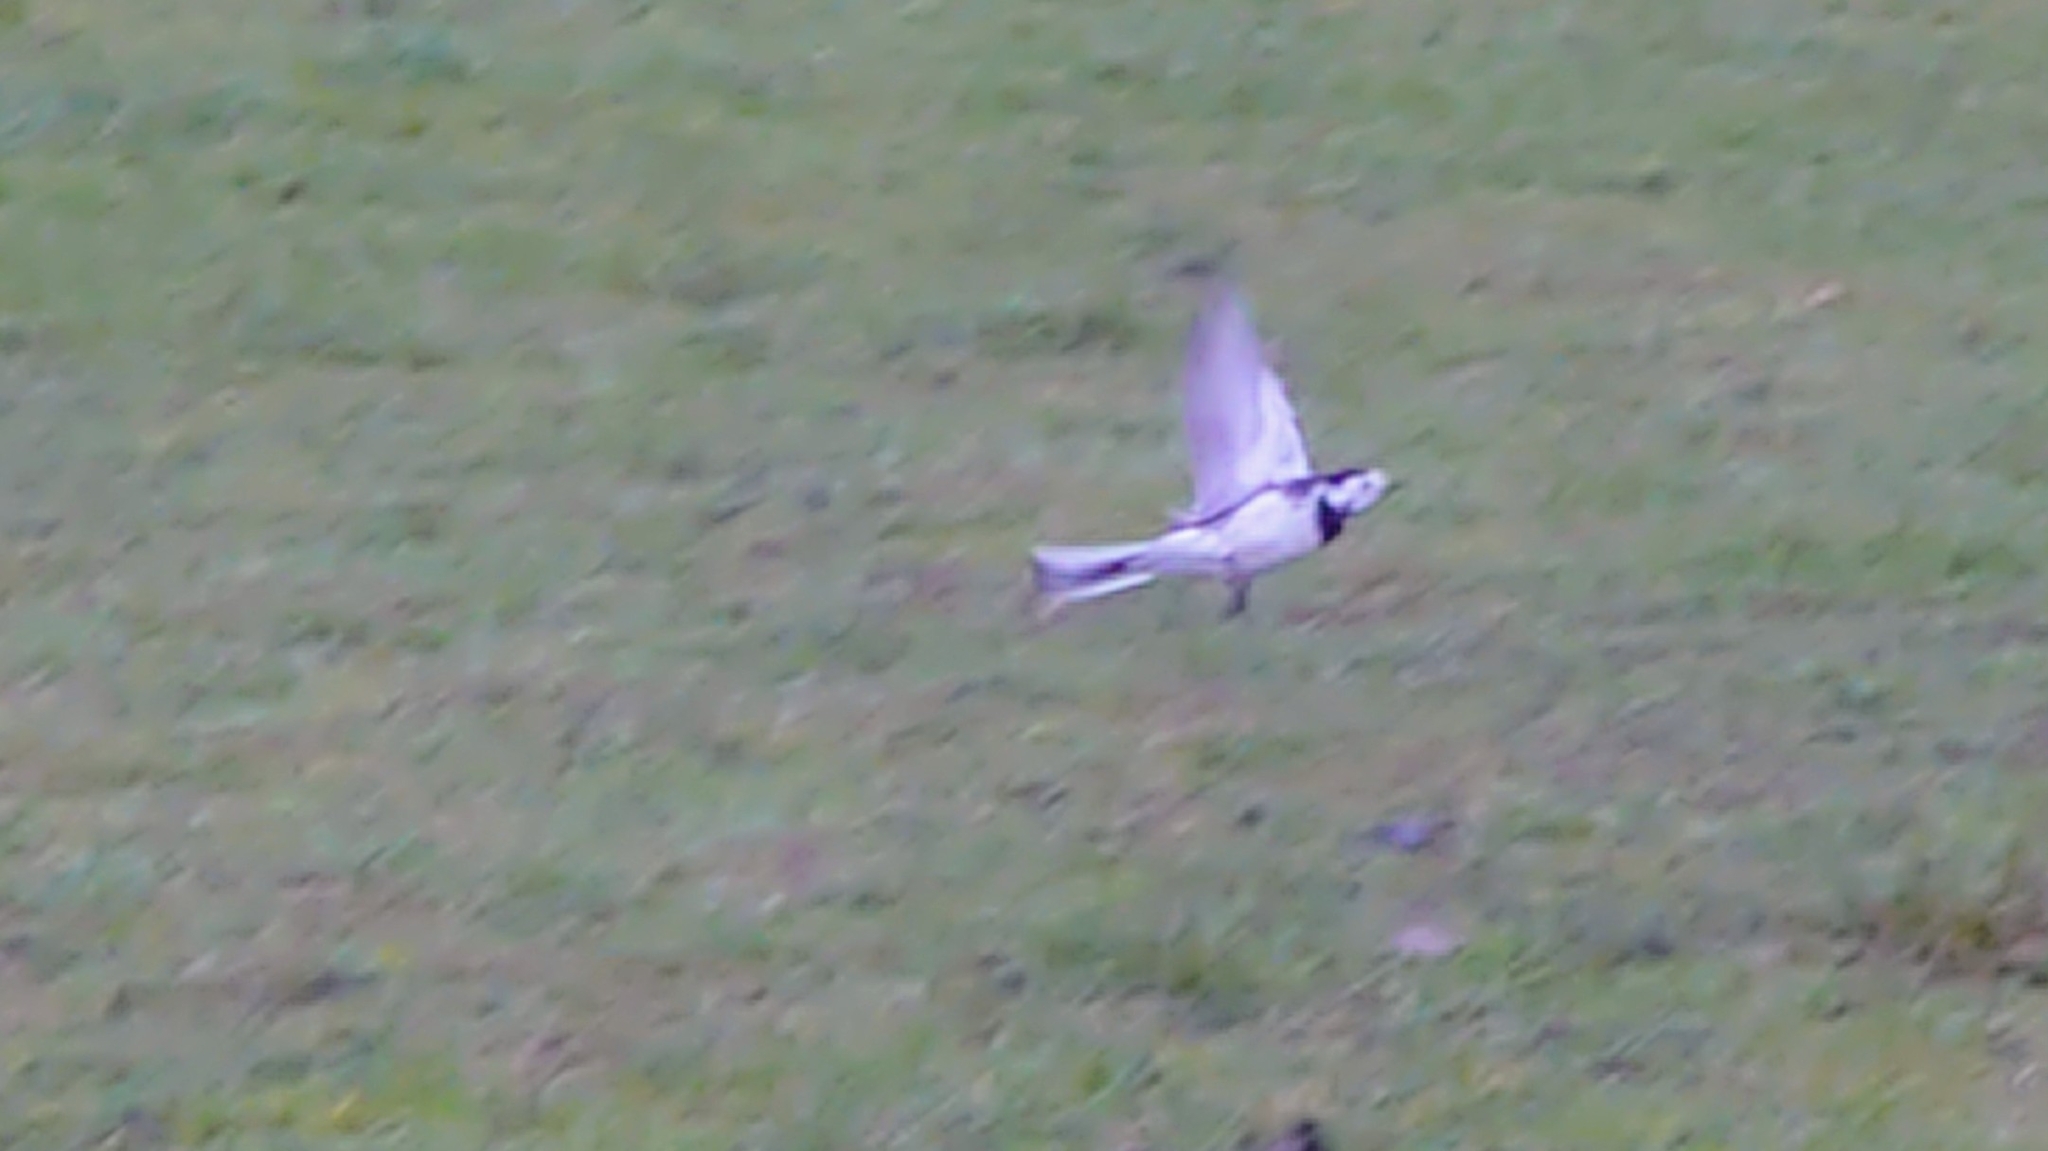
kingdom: Animalia
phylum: Chordata
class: Aves
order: Passeriformes
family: Motacillidae
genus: Motacilla
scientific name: Motacilla alba
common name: White wagtail
